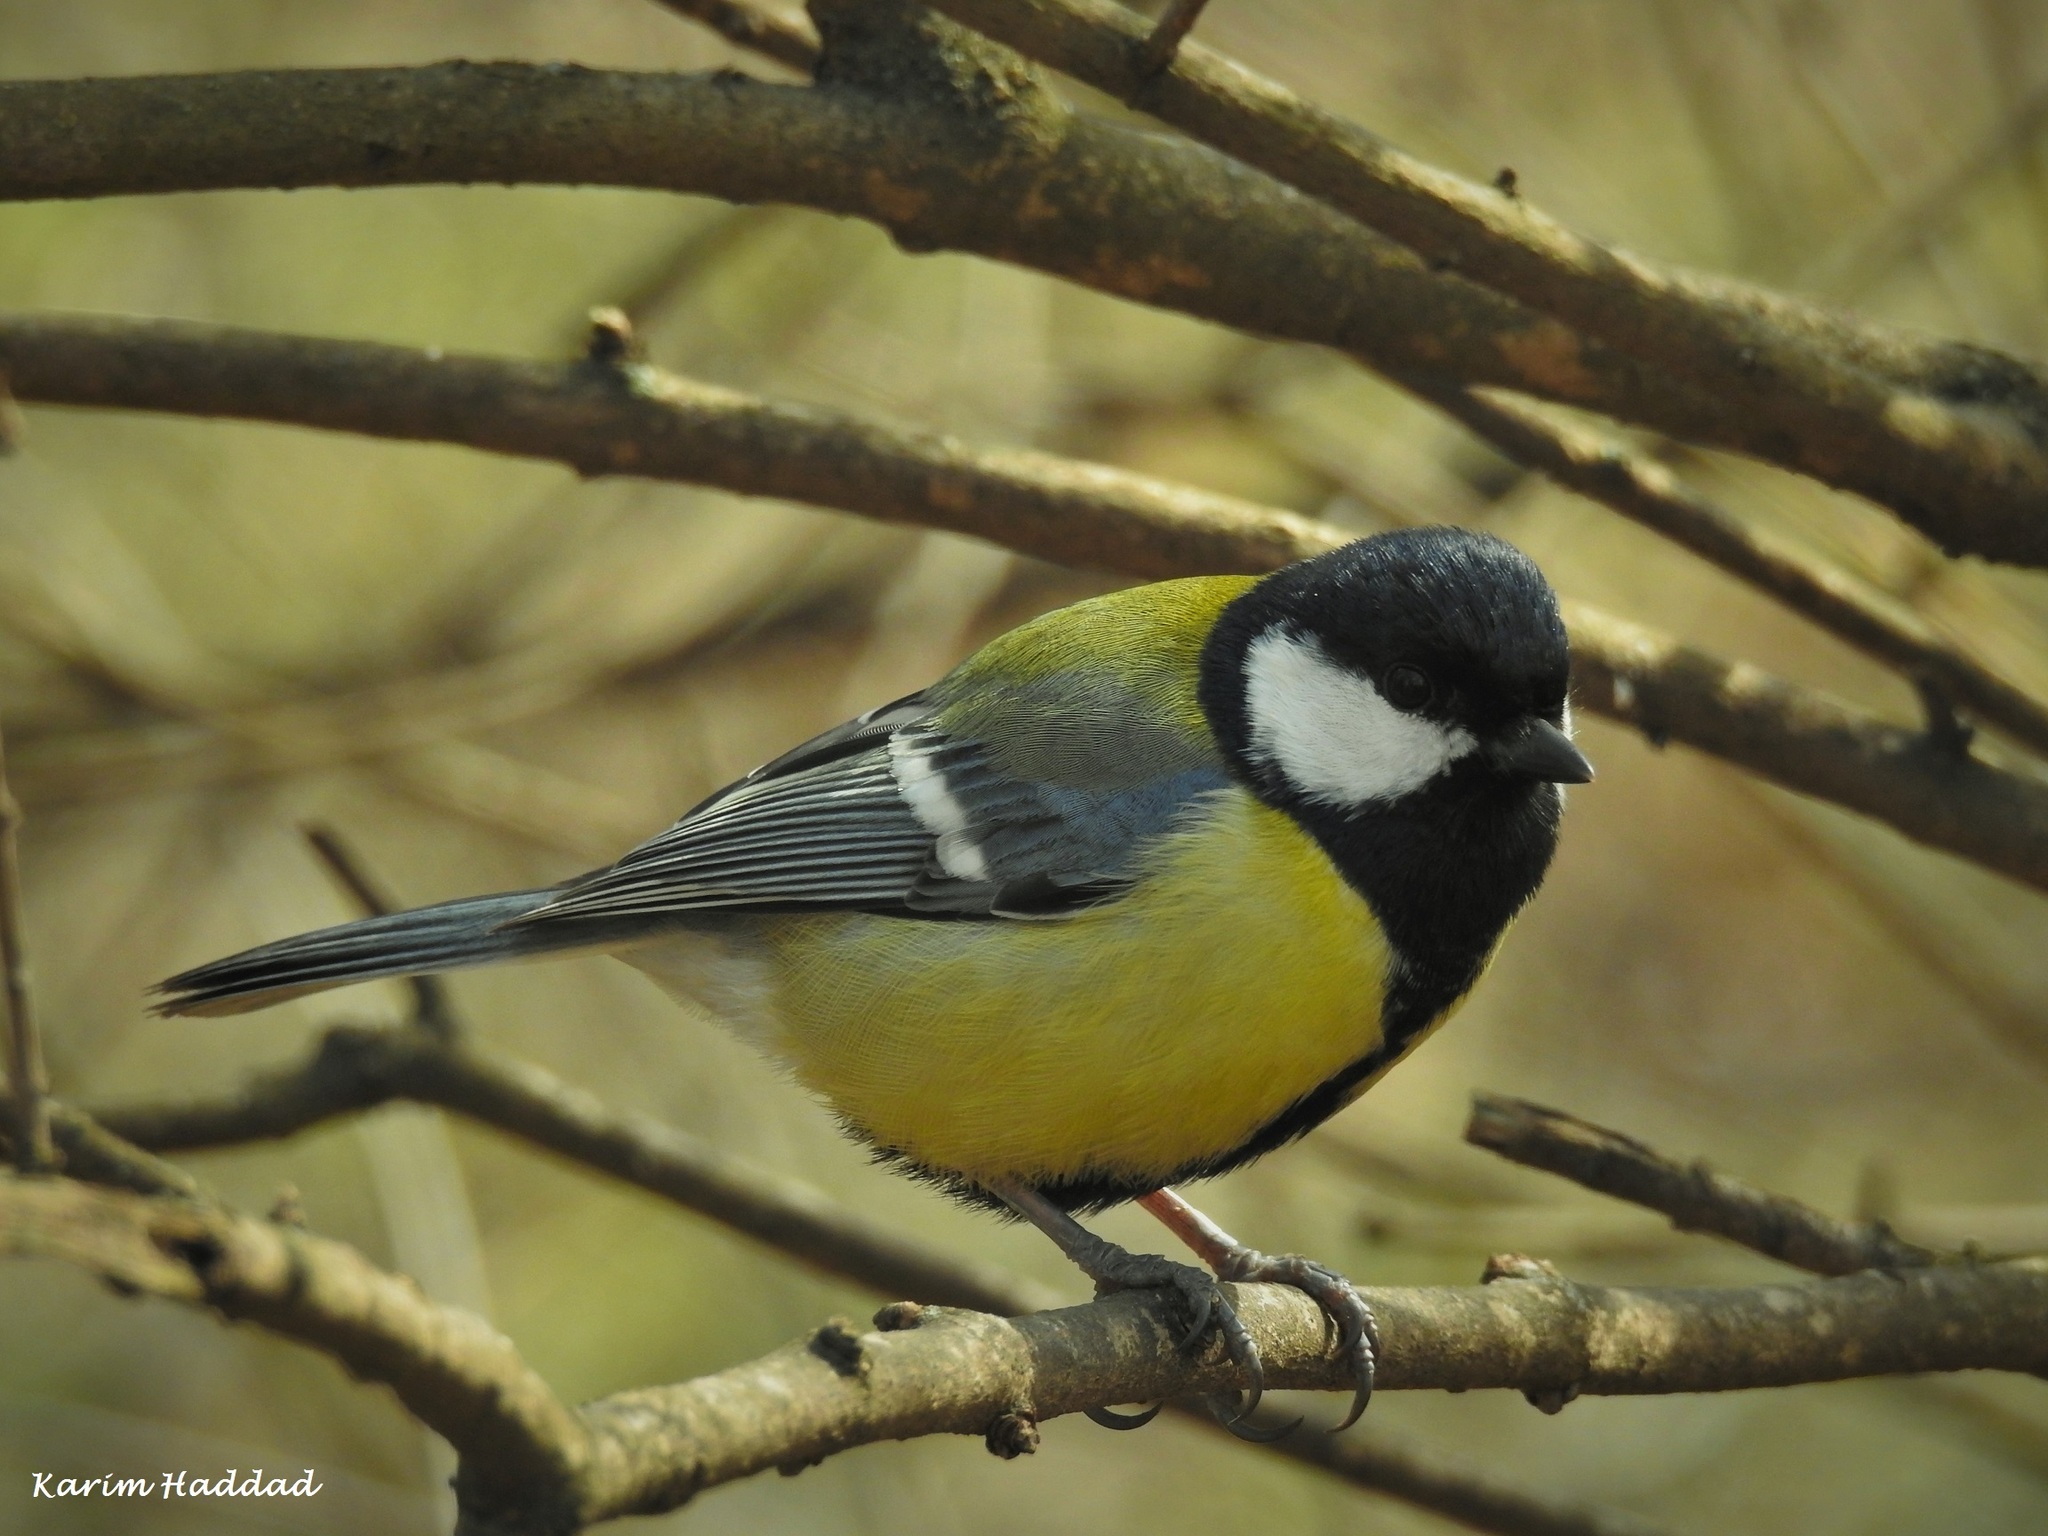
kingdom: Animalia
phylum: Chordata
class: Aves
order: Passeriformes
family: Paridae
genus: Parus
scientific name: Parus major
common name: Great tit
